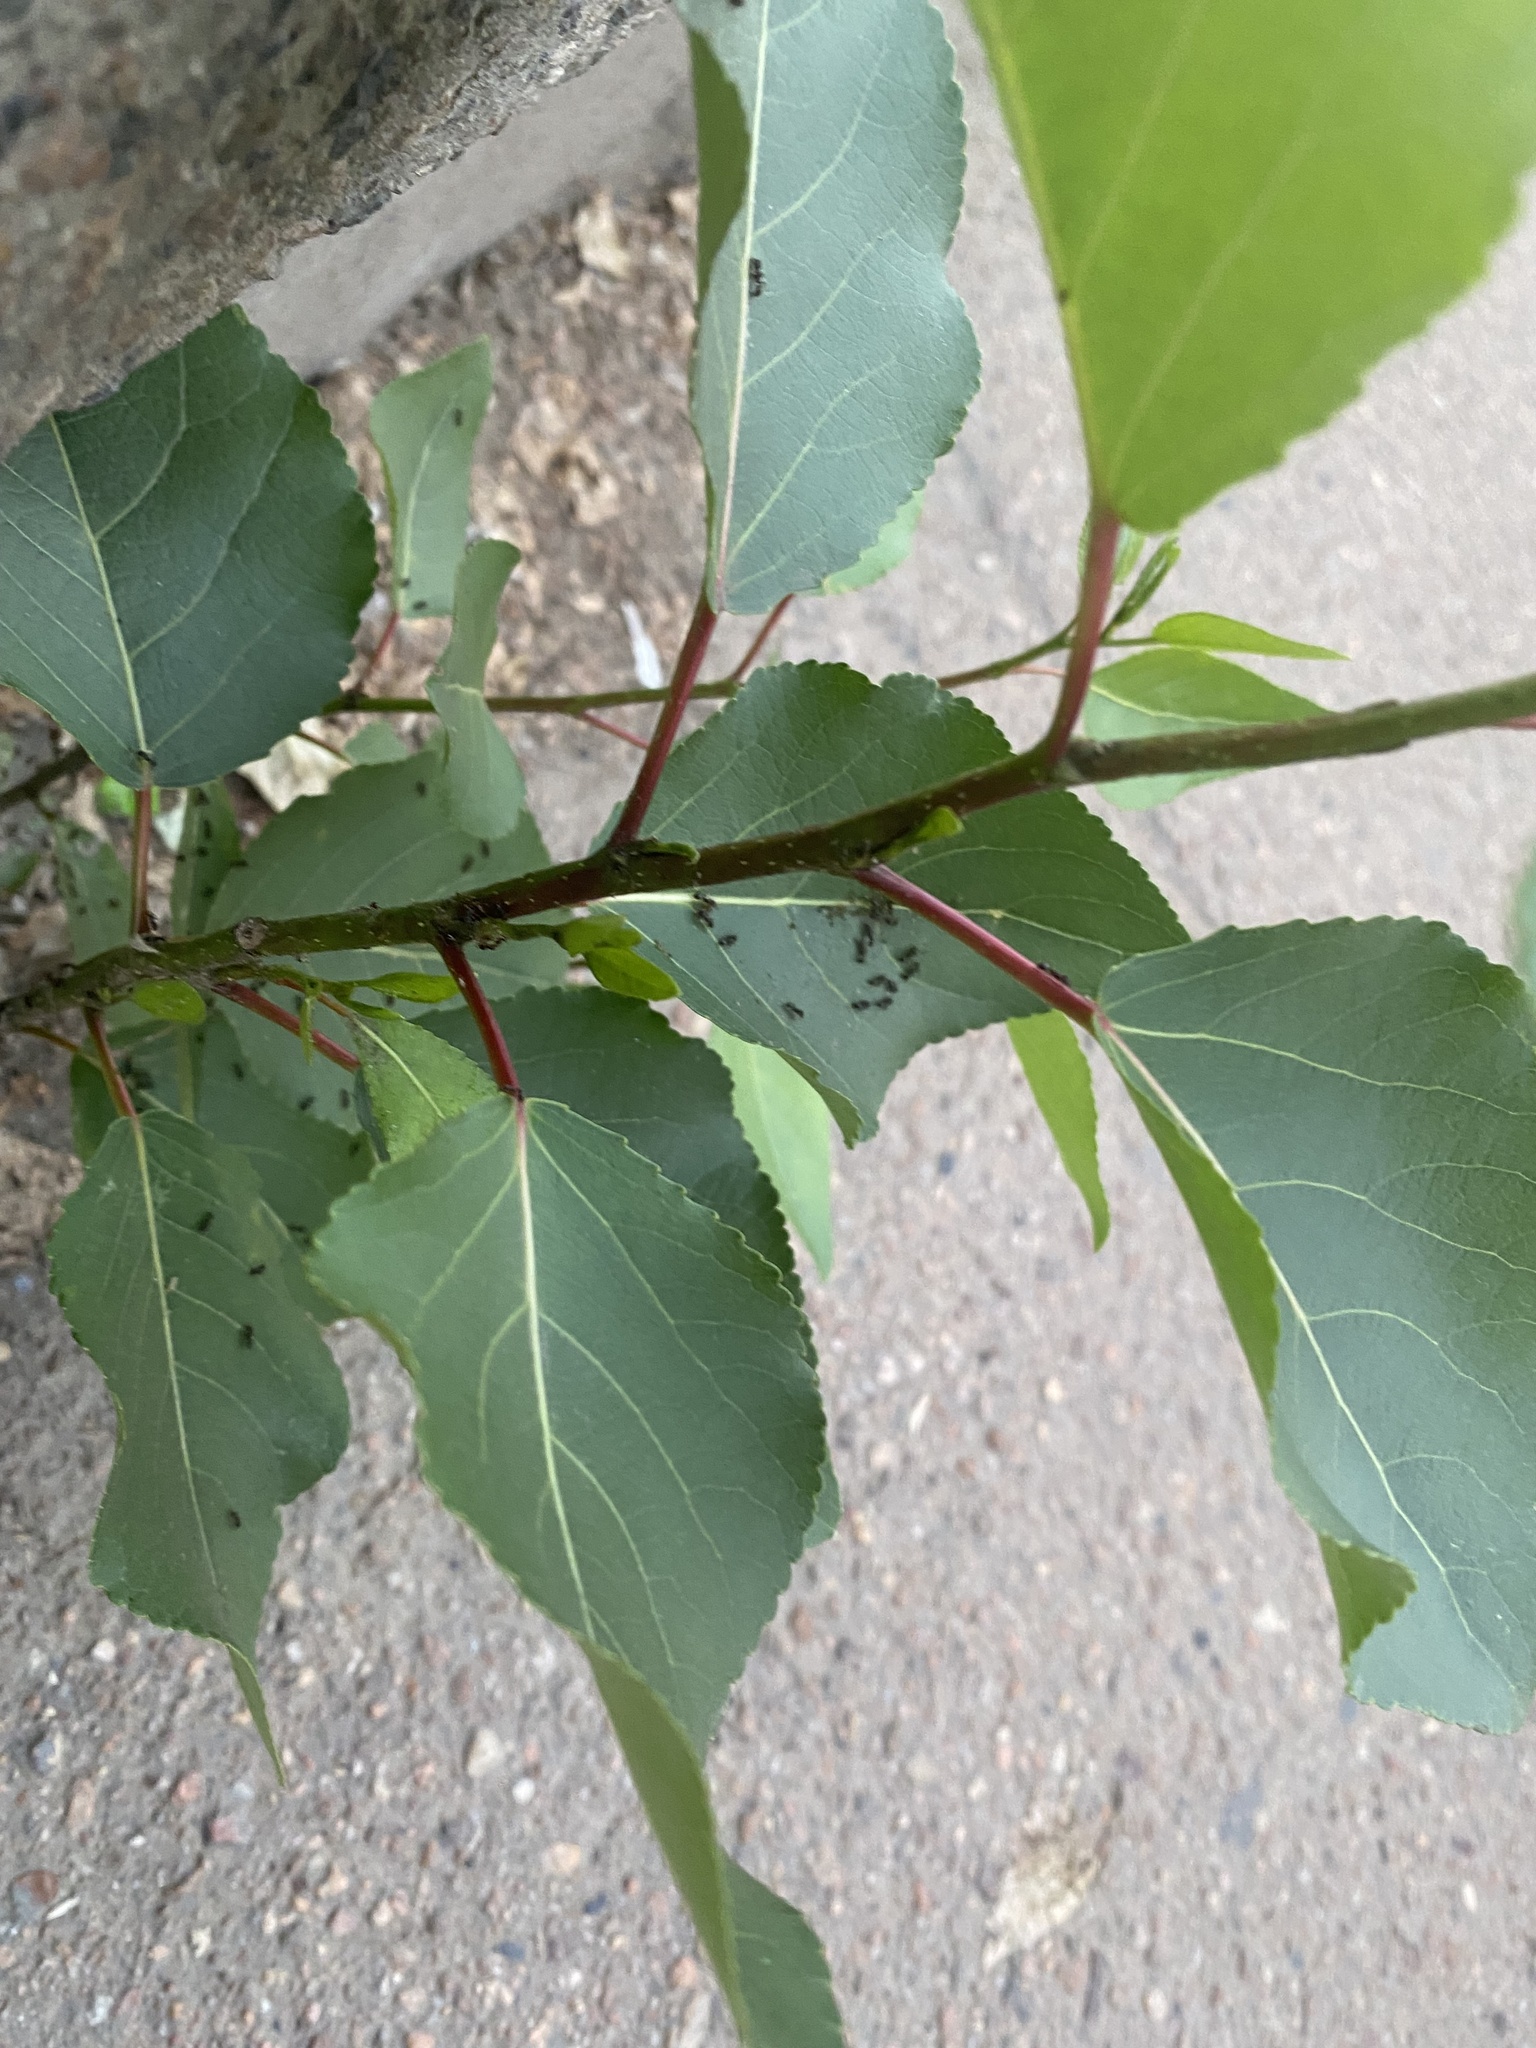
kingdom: Plantae
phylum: Tracheophyta
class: Magnoliopsida
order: Malpighiales
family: Salicaceae
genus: Populus
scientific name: Populus sibirica
